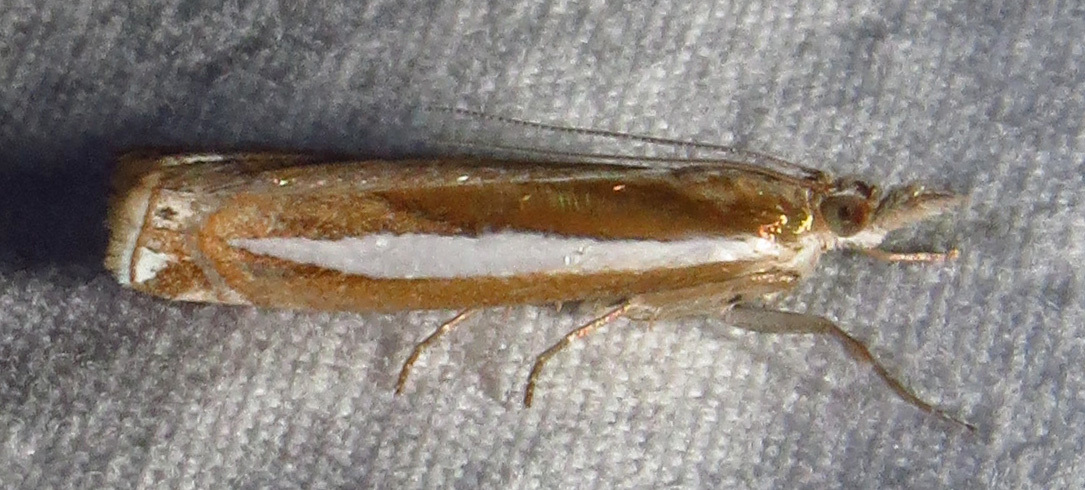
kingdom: Animalia
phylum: Arthropoda
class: Insecta
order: Lepidoptera
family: Crambidae
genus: Crambus
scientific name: Crambus praefectellus
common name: Common grass-veneer
